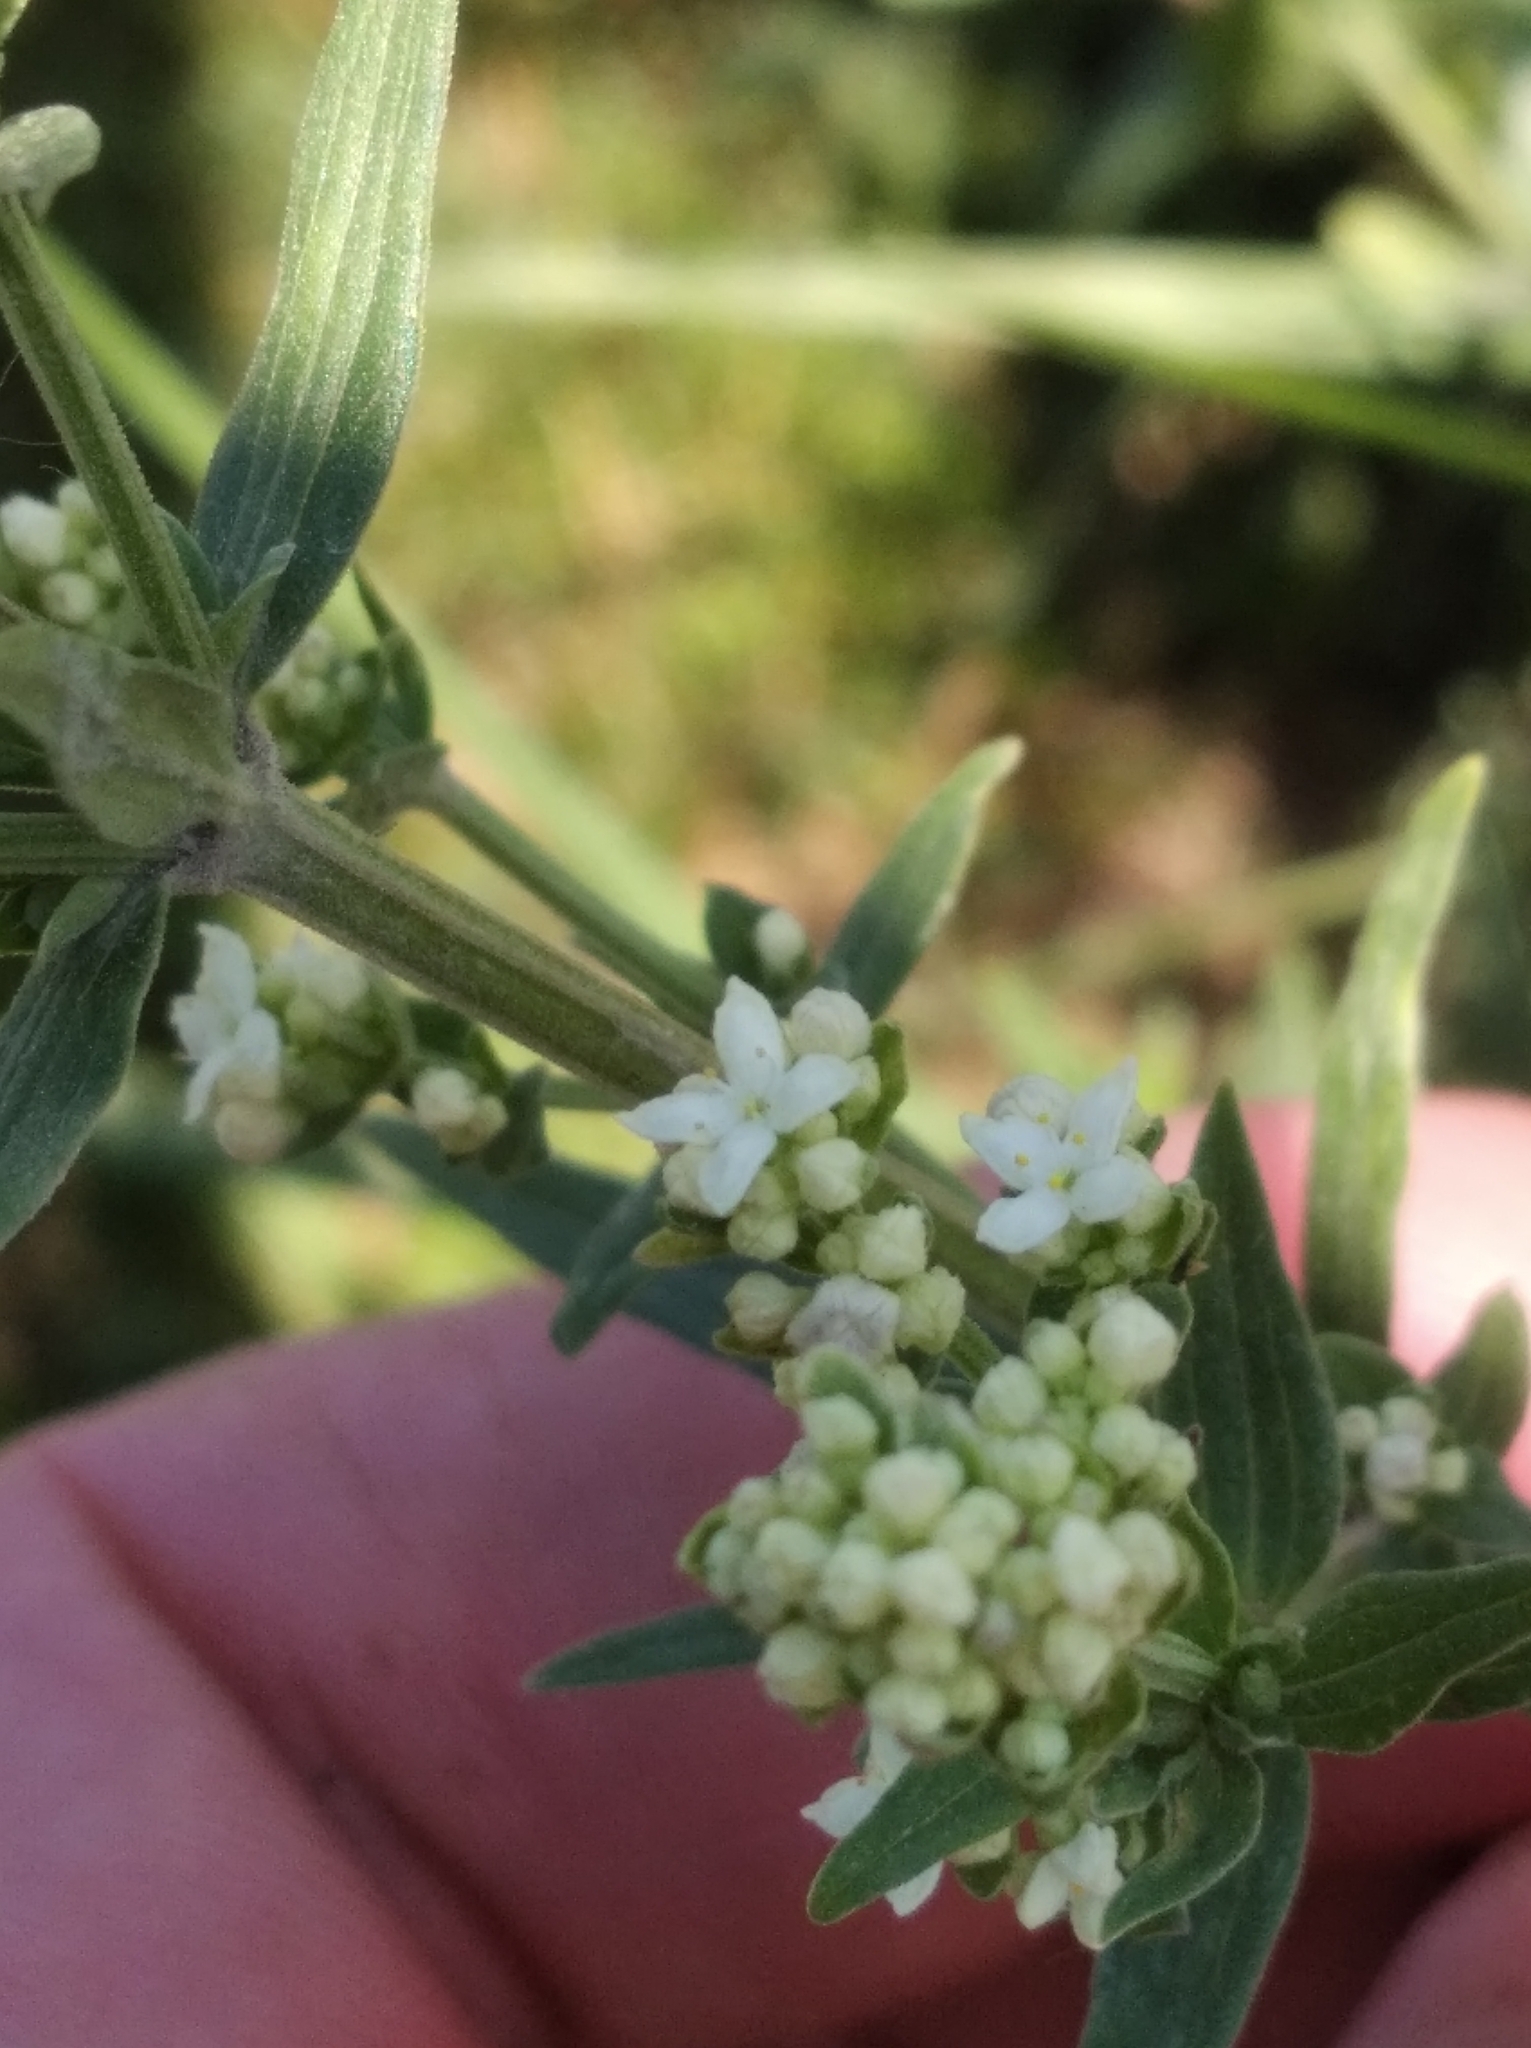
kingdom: Plantae
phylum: Tracheophyta
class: Magnoliopsida
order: Gentianales
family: Rubiaceae
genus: Galium
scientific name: Galium boreale
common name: Northern bedstraw
